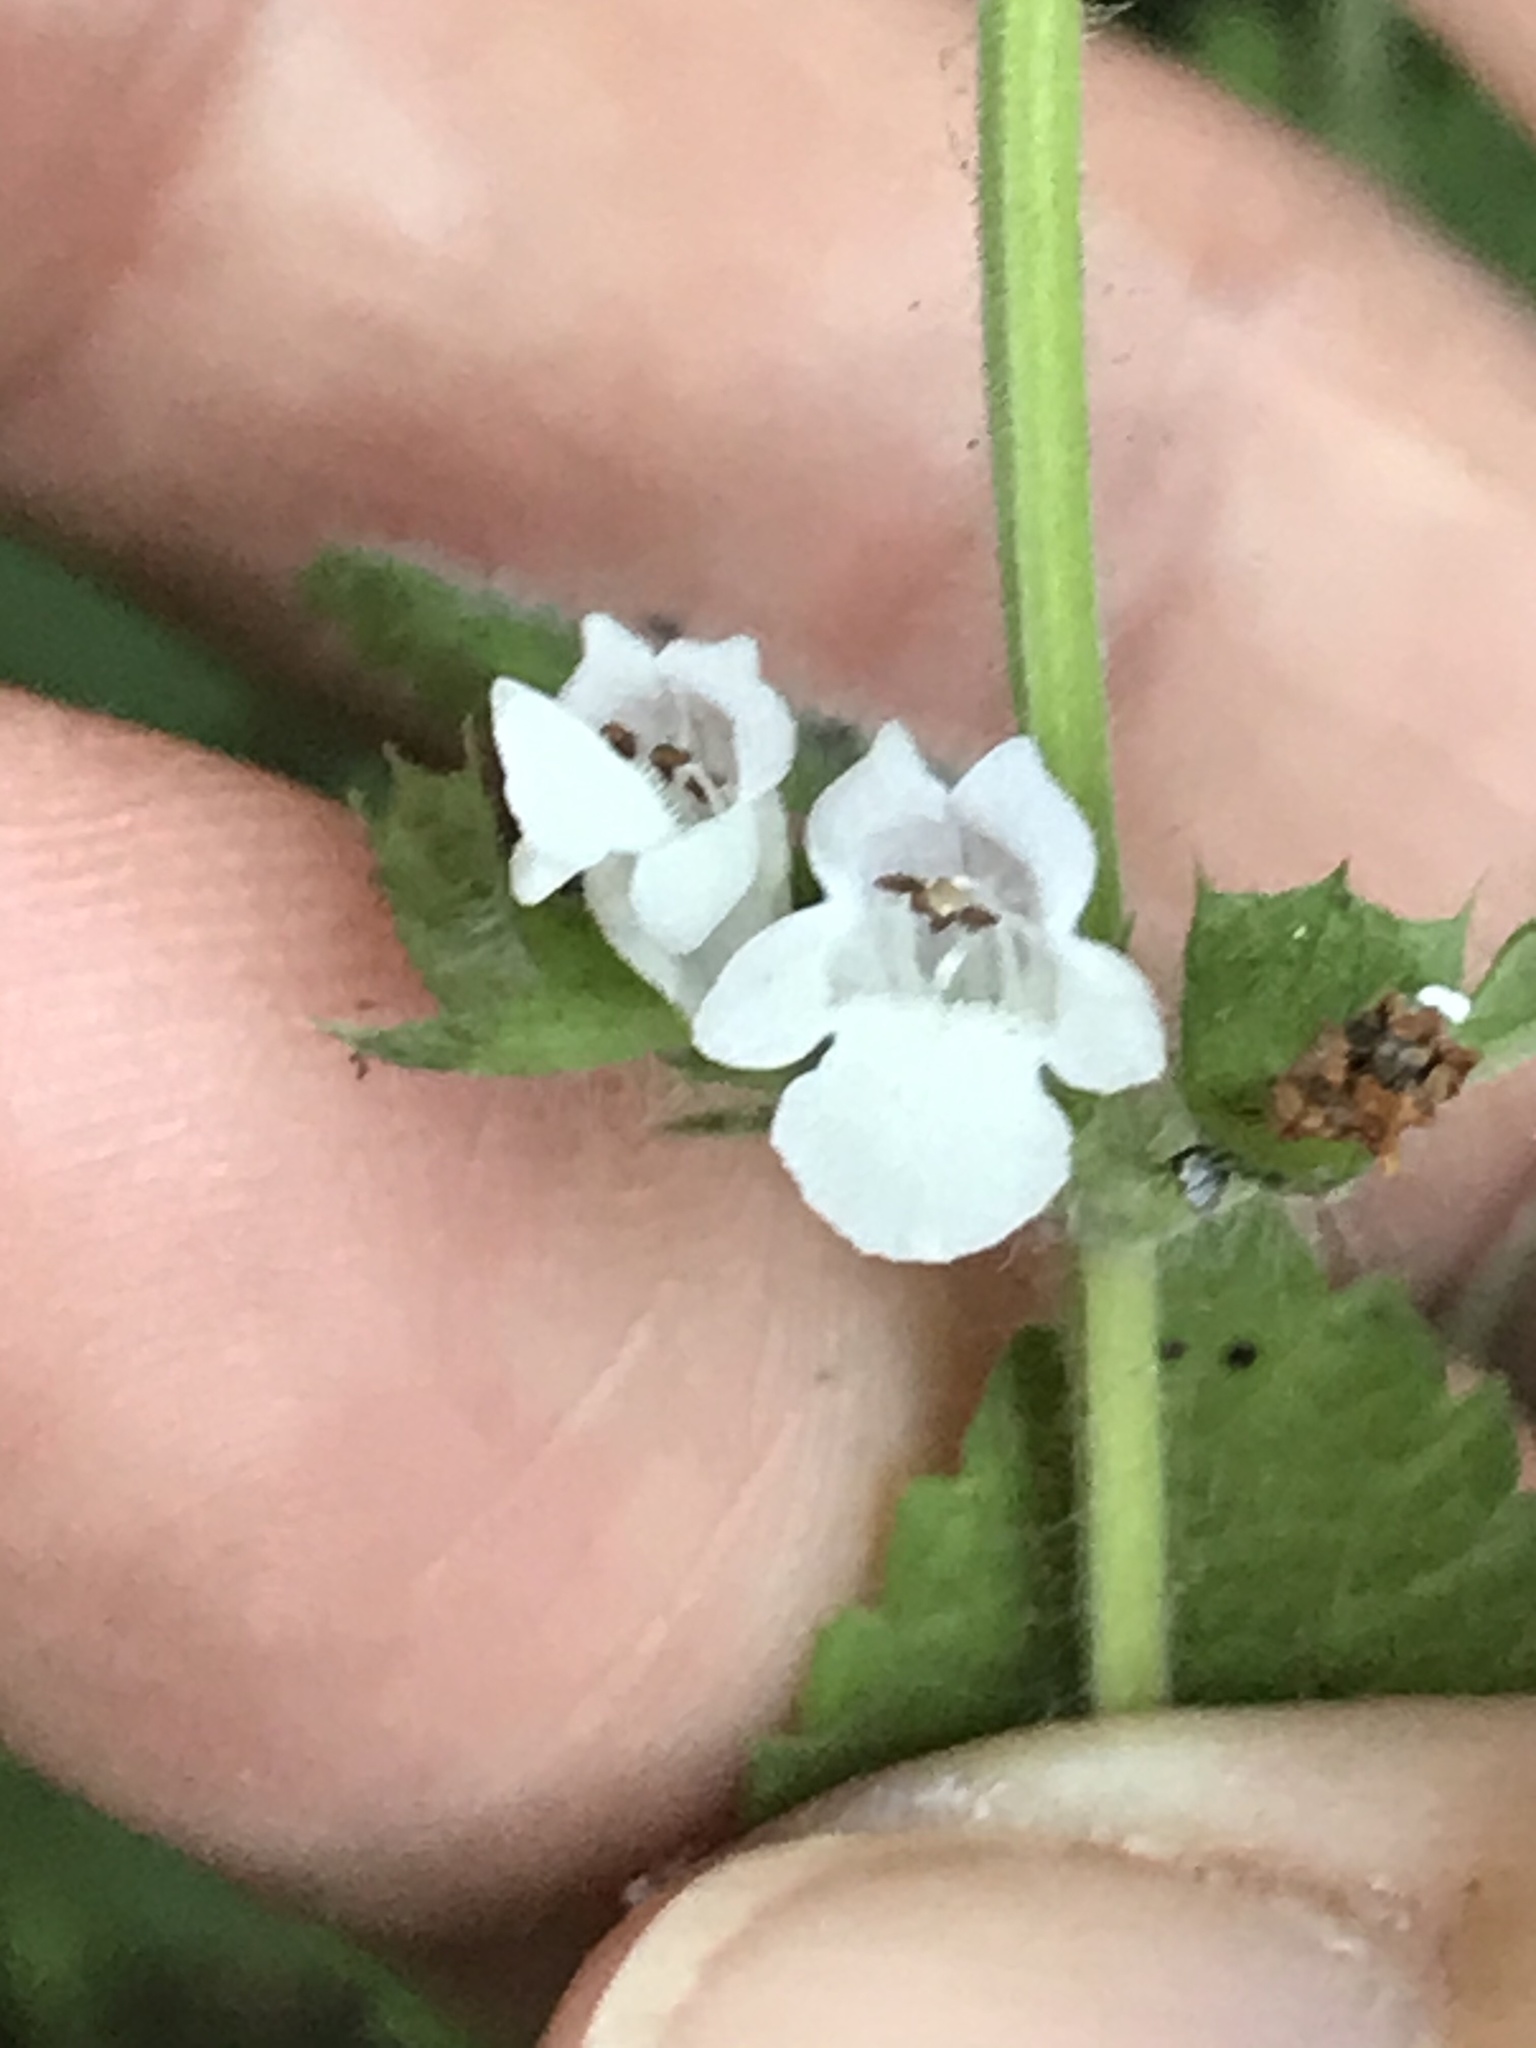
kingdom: Plantae
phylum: Tracheophyta
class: Magnoliopsida
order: Lamiales
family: Lamiaceae
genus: Melissa
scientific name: Melissa officinalis
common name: Balm
